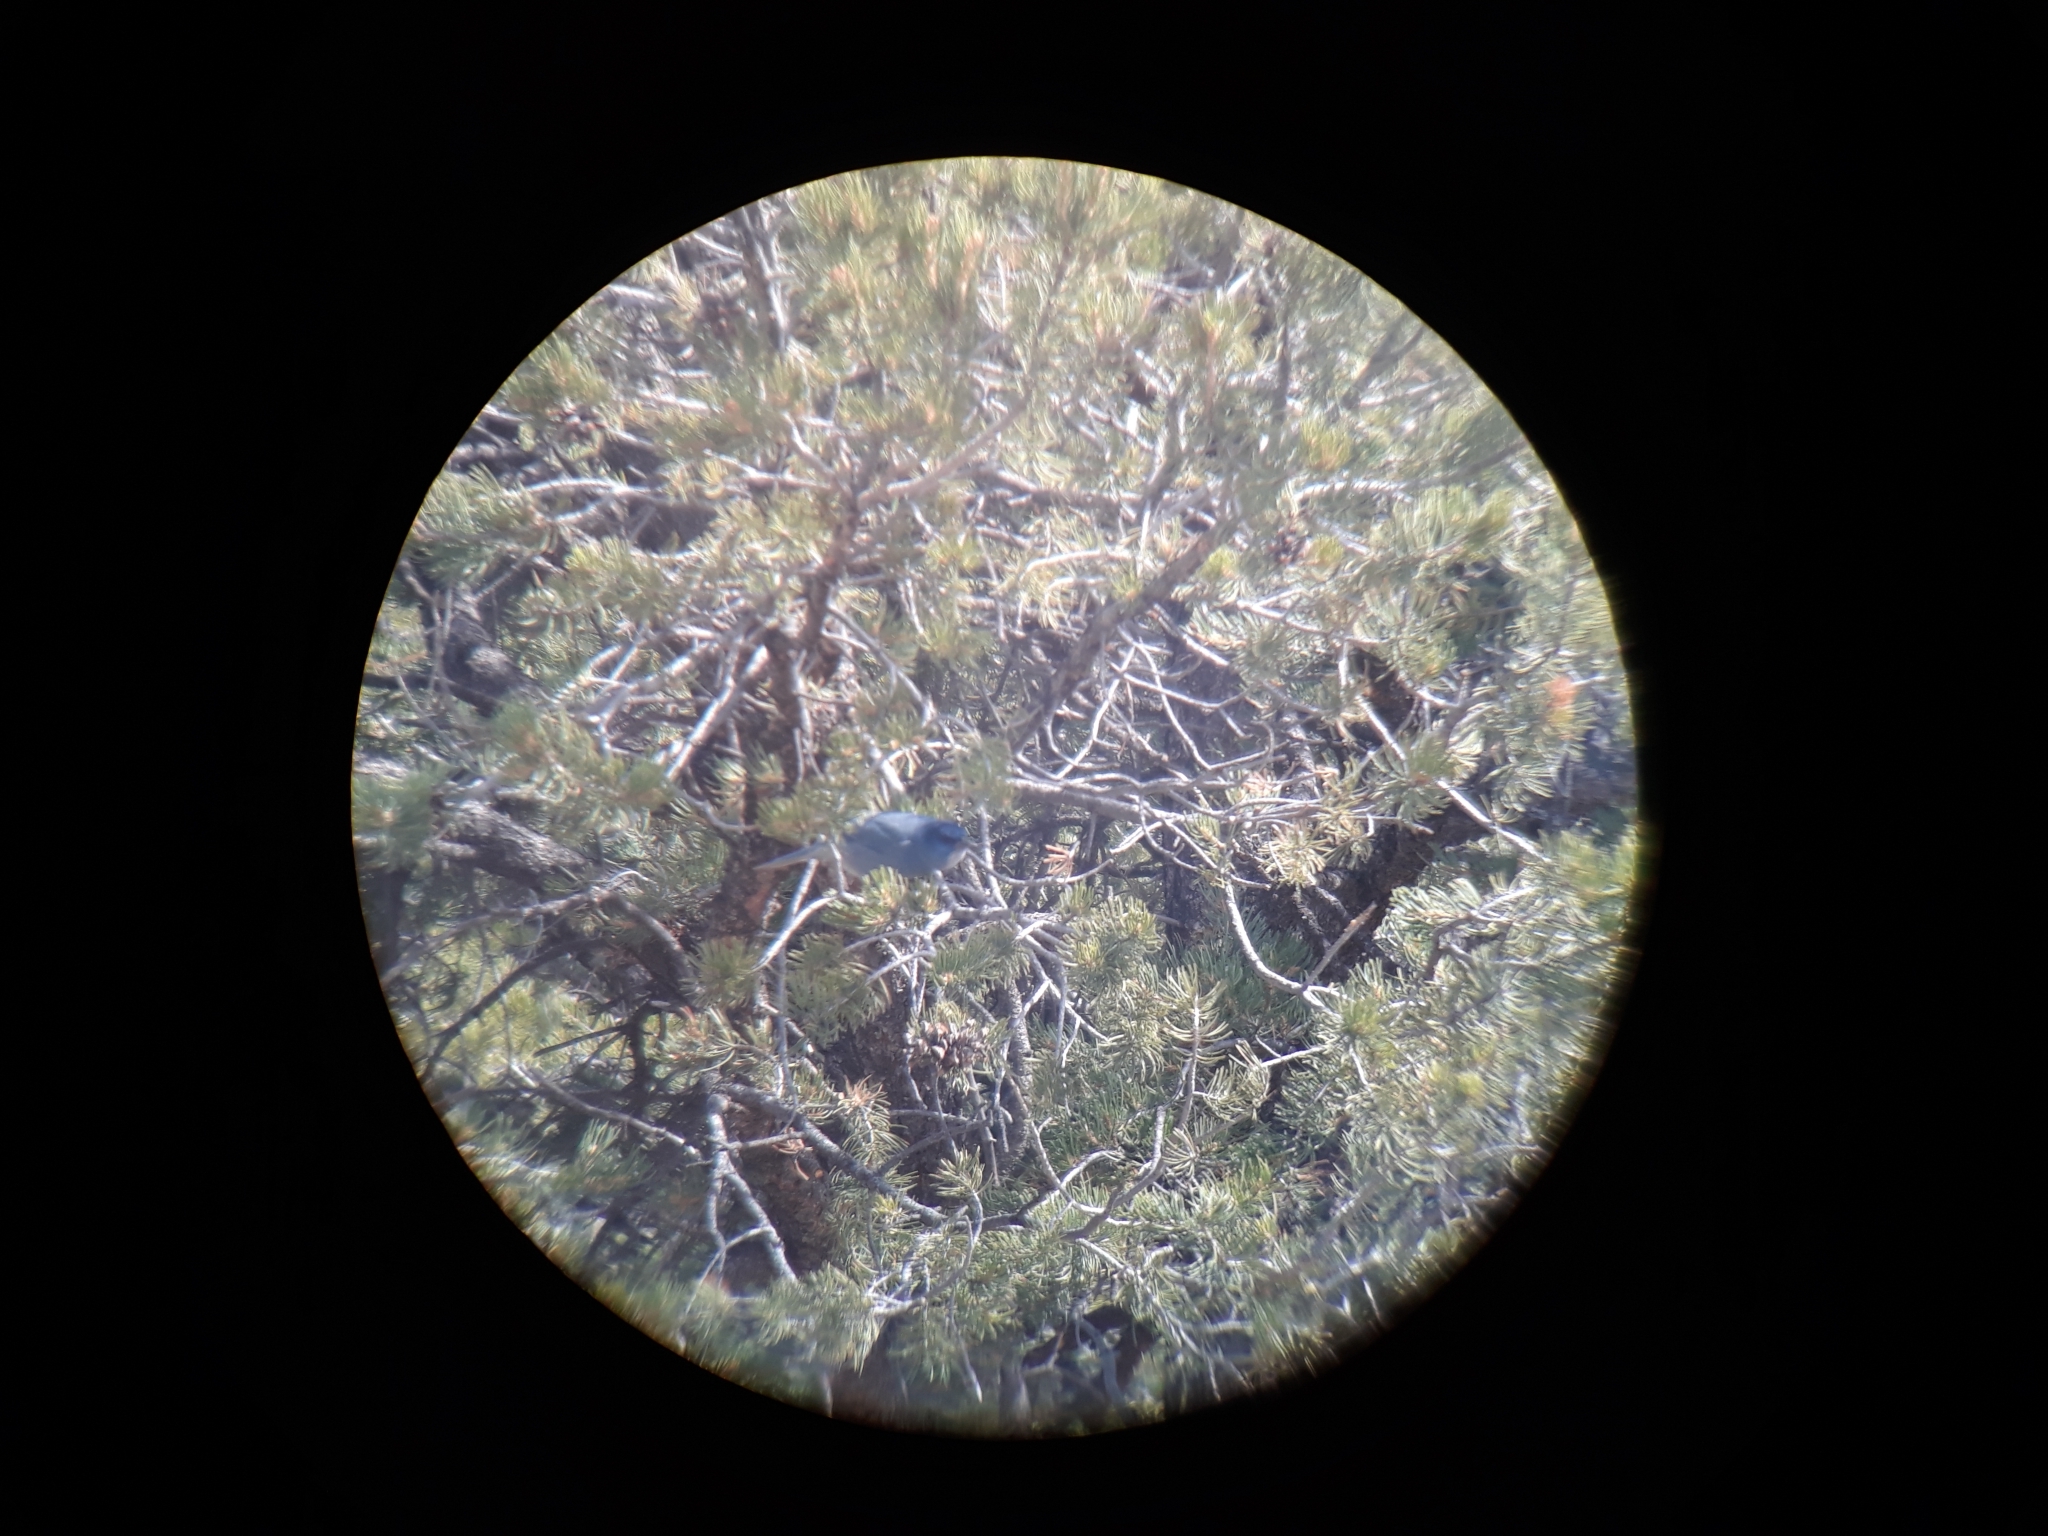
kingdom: Animalia
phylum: Chordata
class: Aves
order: Passeriformes
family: Corvidae
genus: Gymnorhinus
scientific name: Gymnorhinus cyanocephalus
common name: Pinyon jay
